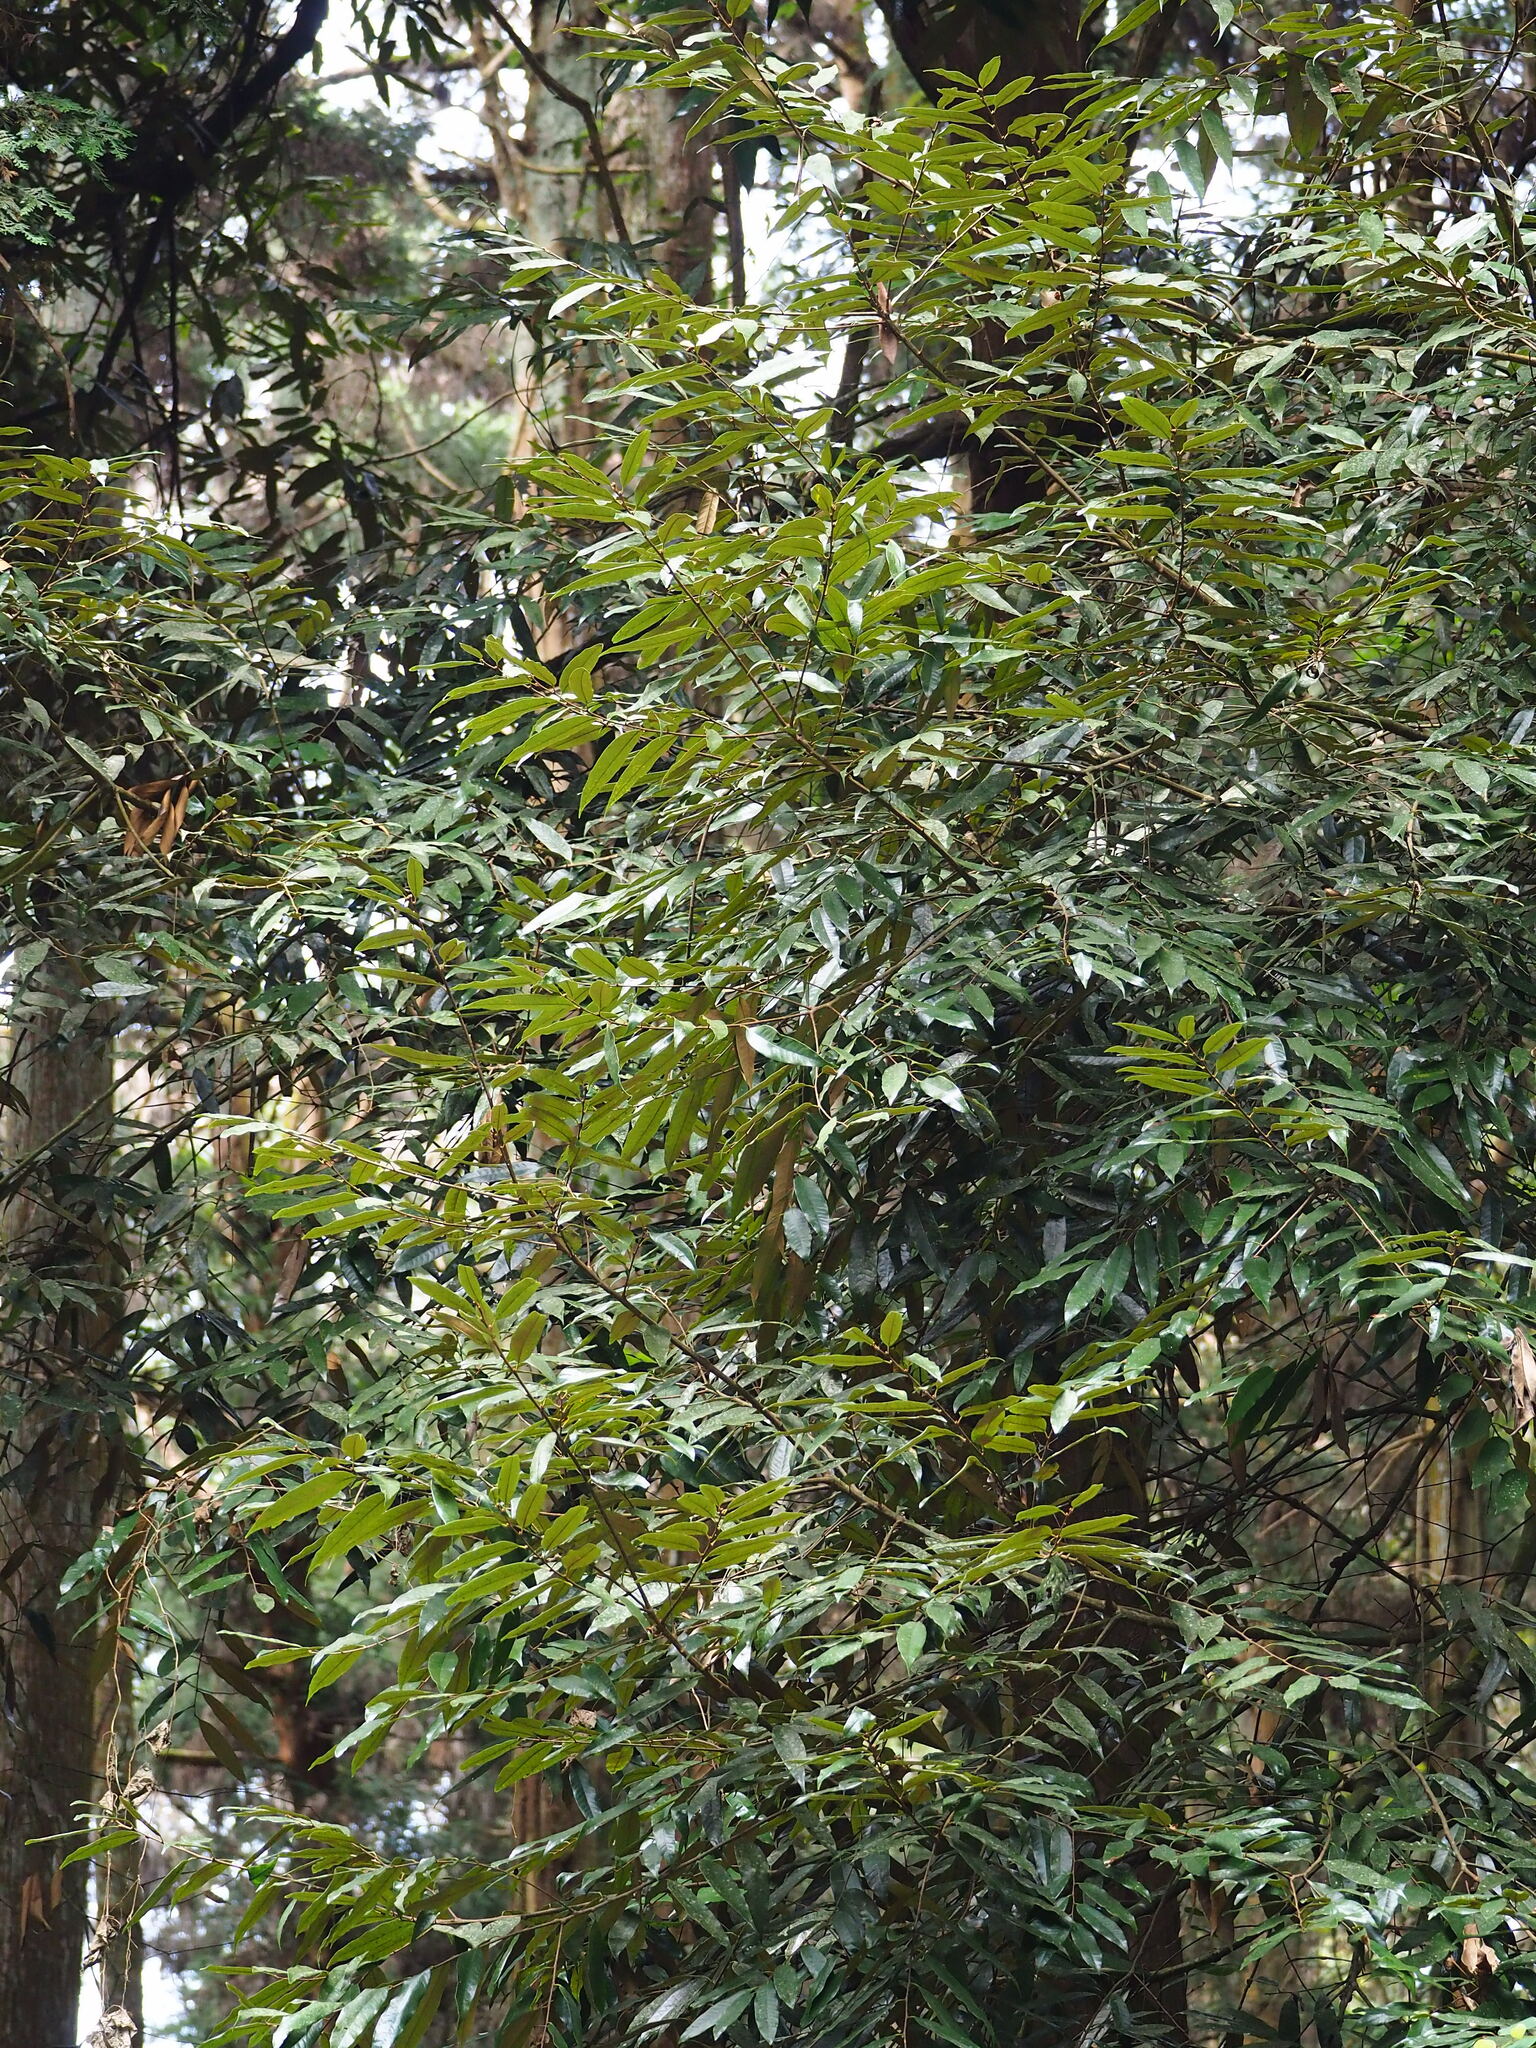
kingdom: Plantae
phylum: Tracheophyta
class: Magnoliopsida
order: Fagales
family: Fagaceae
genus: Castanopsis
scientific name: Castanopsis fargesii
